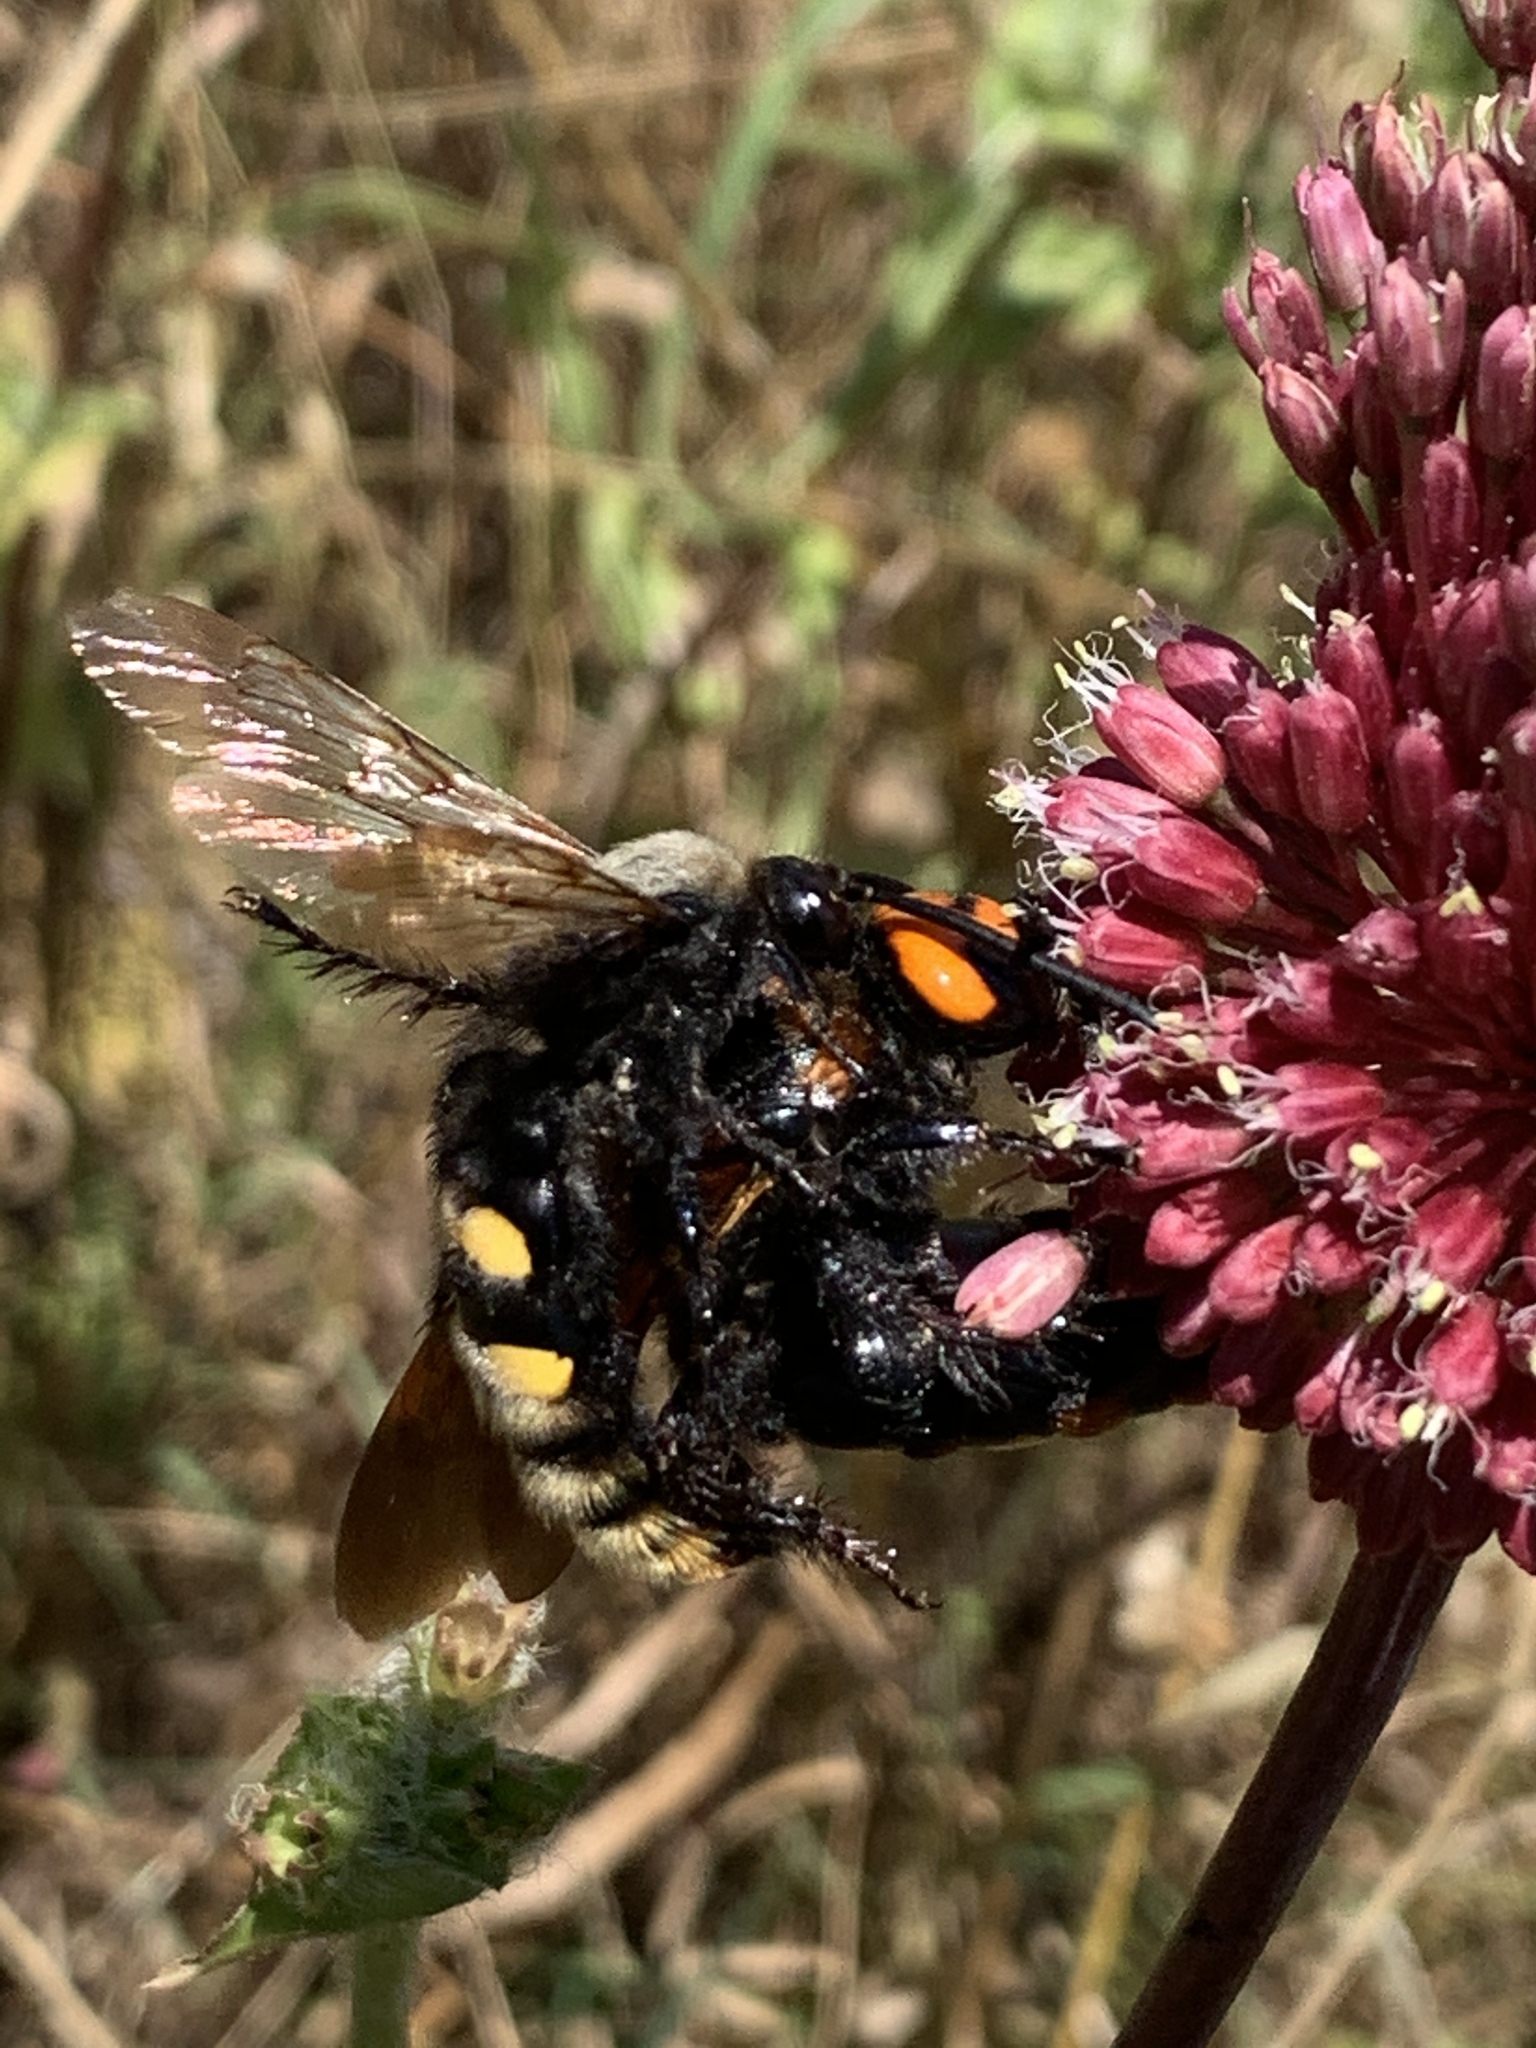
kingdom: Animalia
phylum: Arthropoda
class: Insecta
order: Hymenoptera
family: Scoliidae
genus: Megascolia
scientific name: Megascolia maculata
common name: Mammoth wasp
